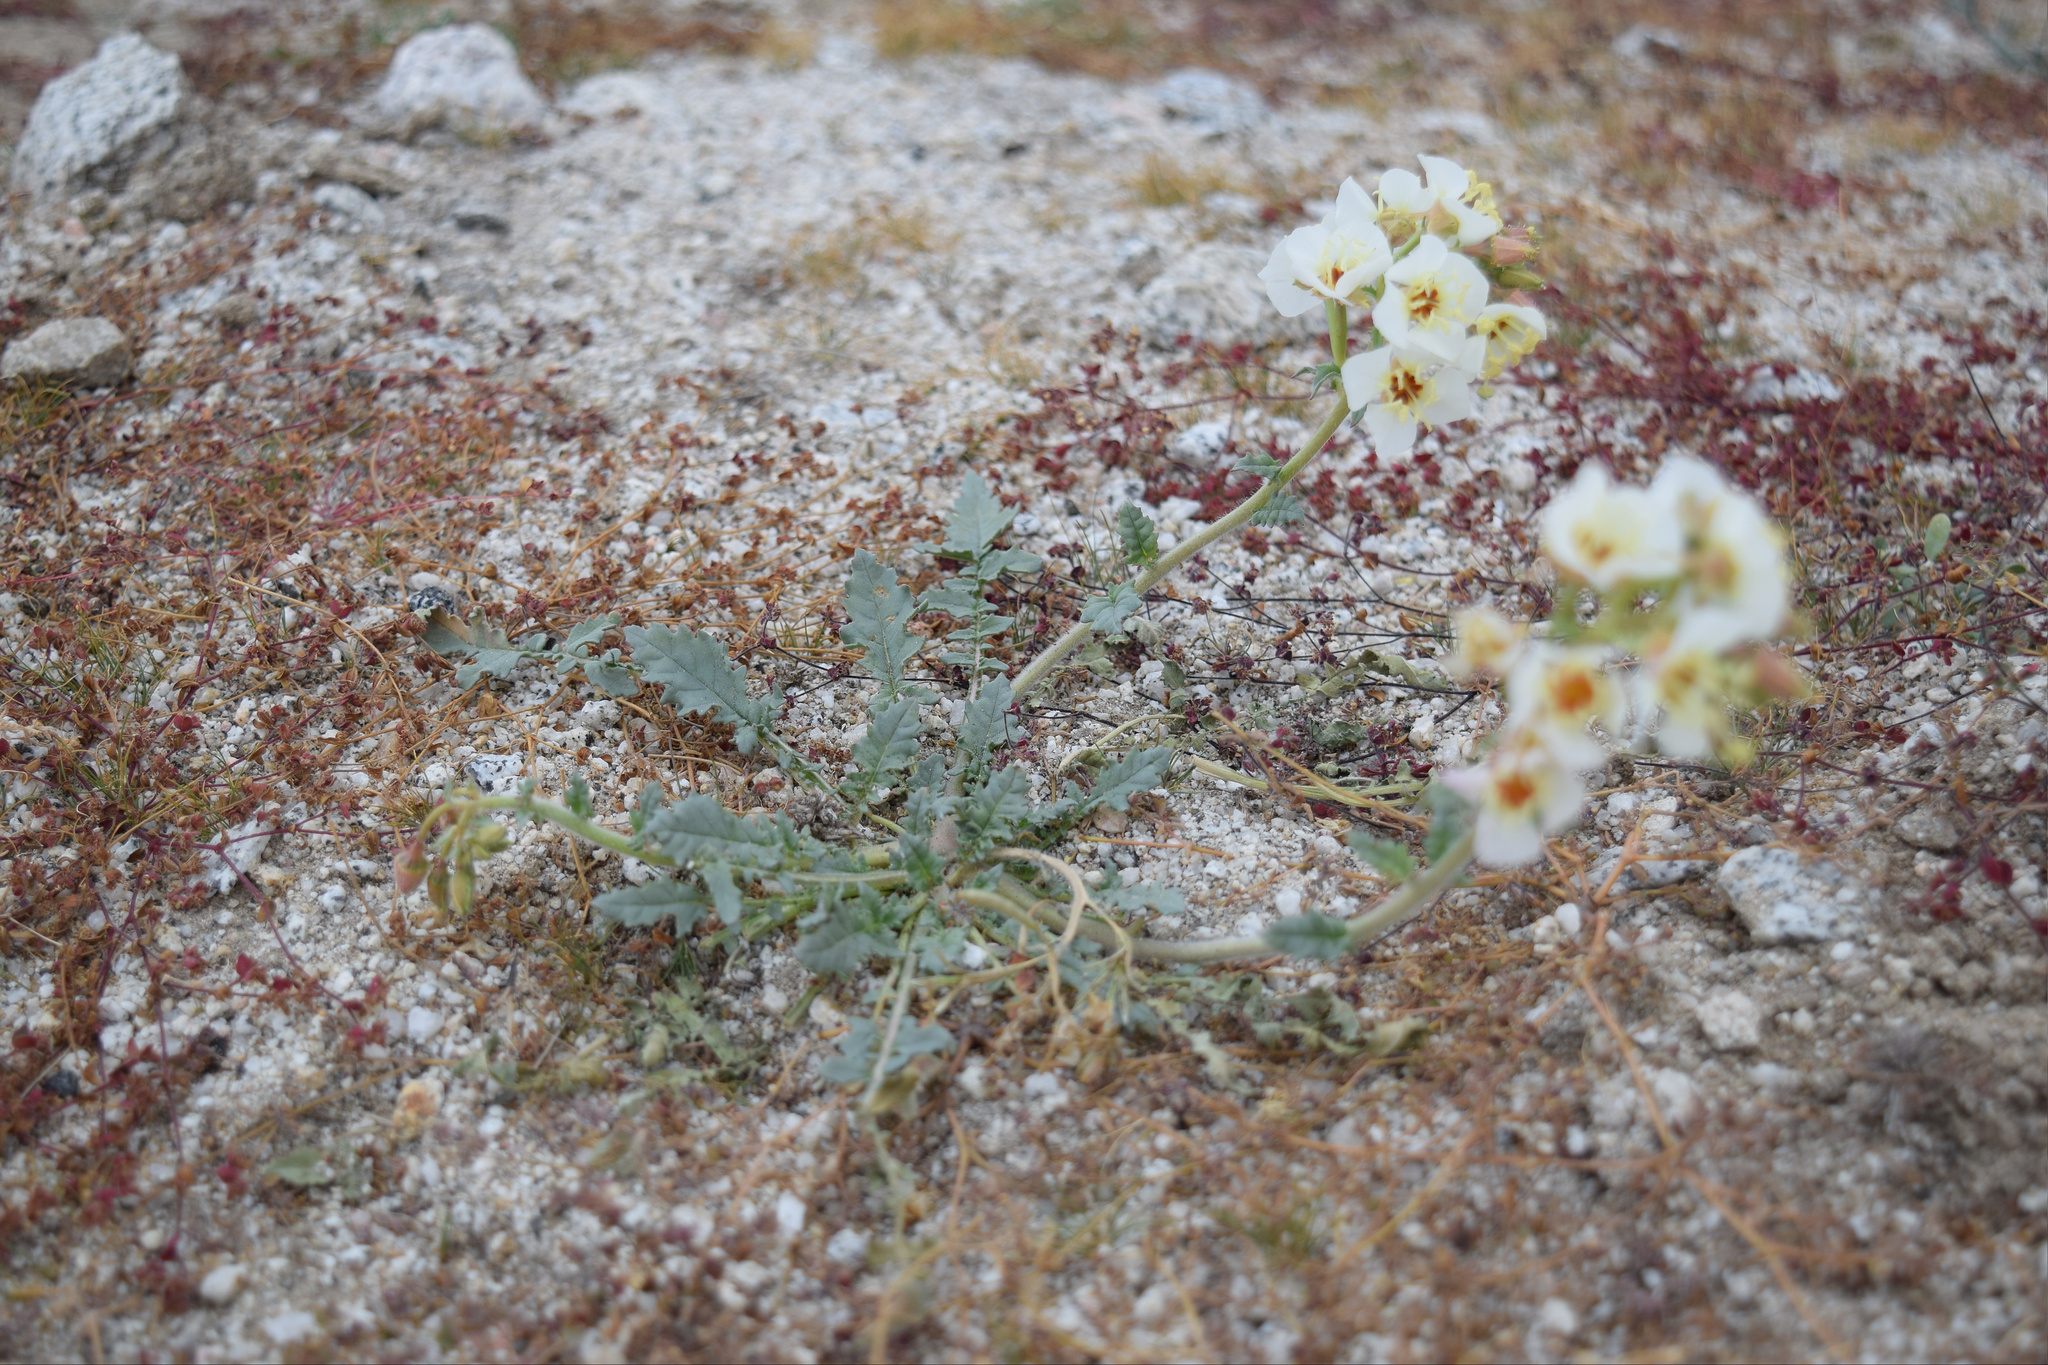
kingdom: Plantae
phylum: Tracheophyta
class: Magnoliopsida
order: Myrtales
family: Onagraceae
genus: Chylismia
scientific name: Chylismia claviformis
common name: Browneyes
